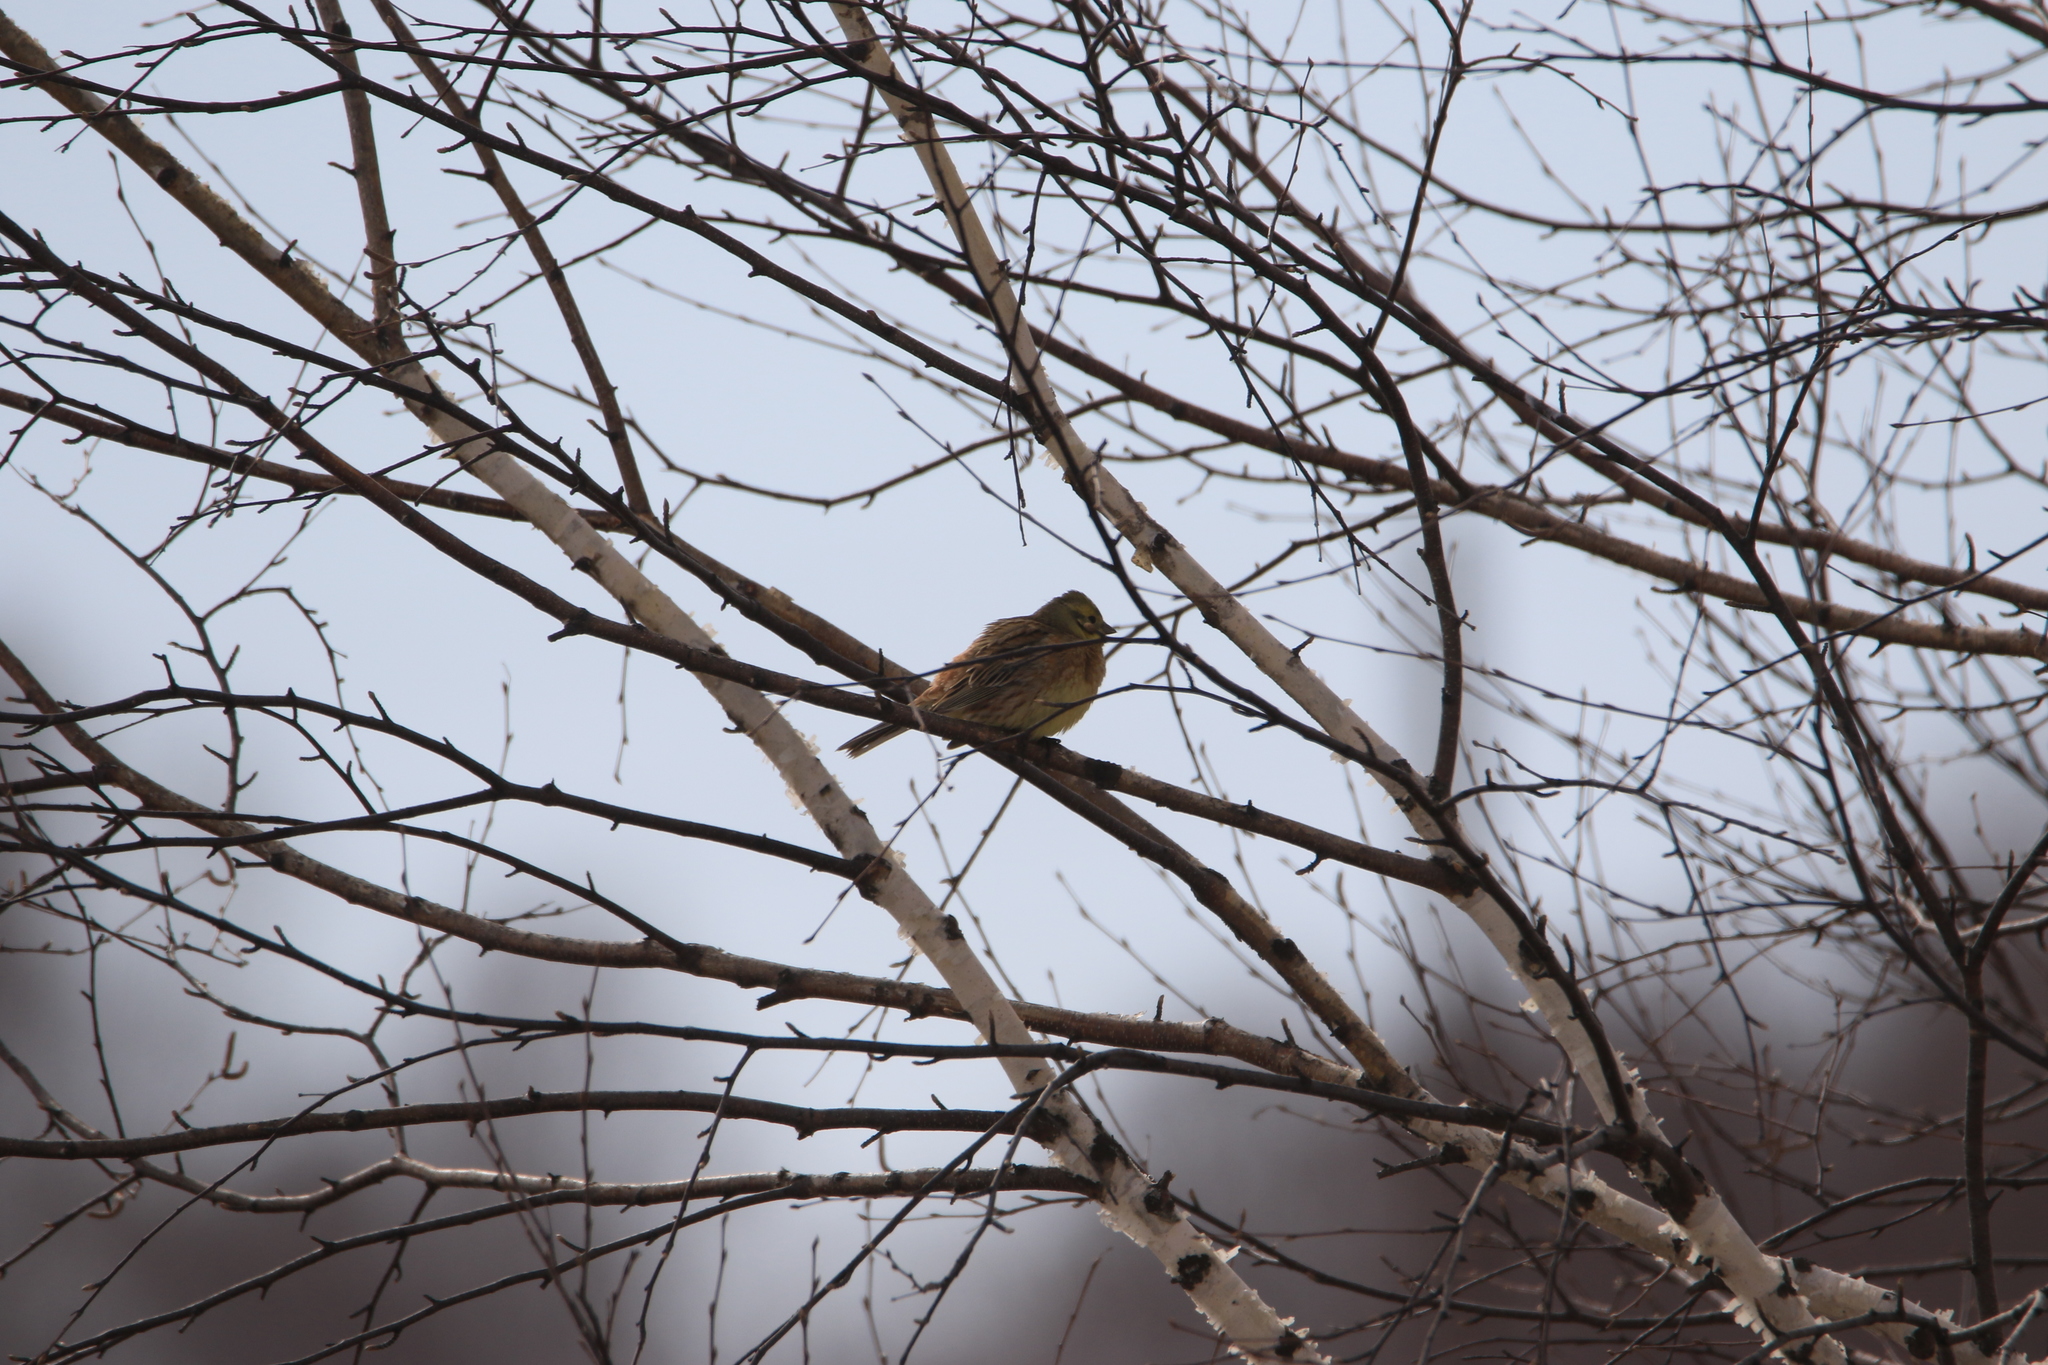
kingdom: Animalia
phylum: Chordata
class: Aves
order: Passeriformes
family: Emberizidae
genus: Emberiza
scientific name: Emberiza citrinella
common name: Yellowhammer
